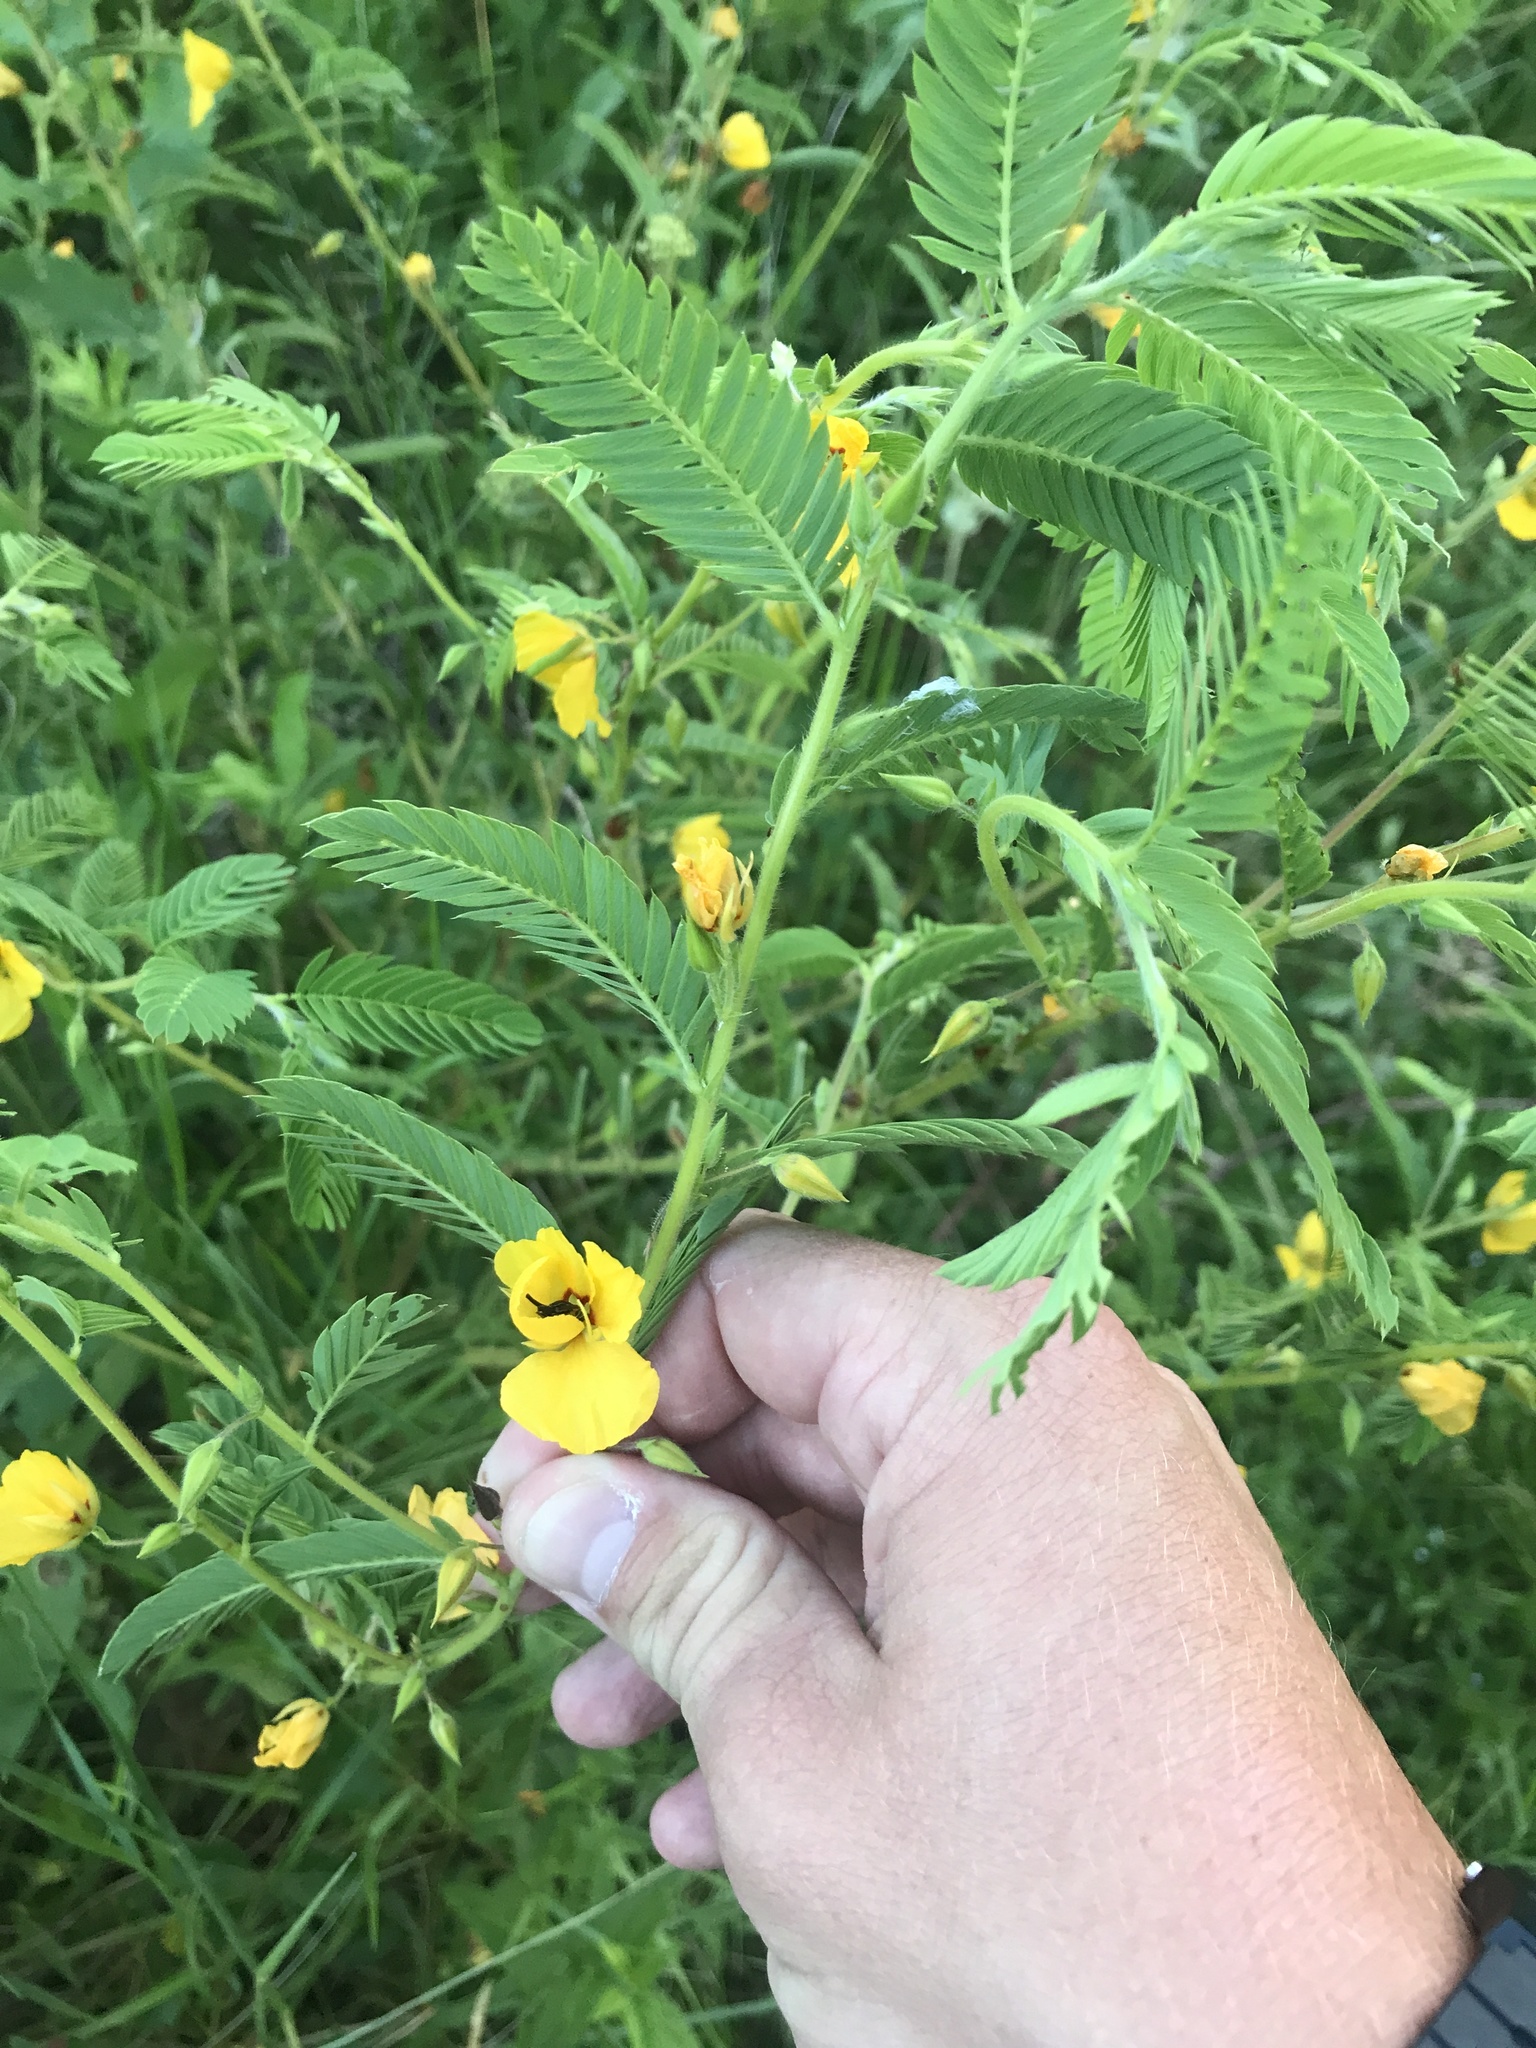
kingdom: Plantae
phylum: Tracheophyta
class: Magnoliopsida
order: Fabales
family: Fabaceae
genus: Chamaecrista
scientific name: Chamaecrista fasciculata
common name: Golden cassia
